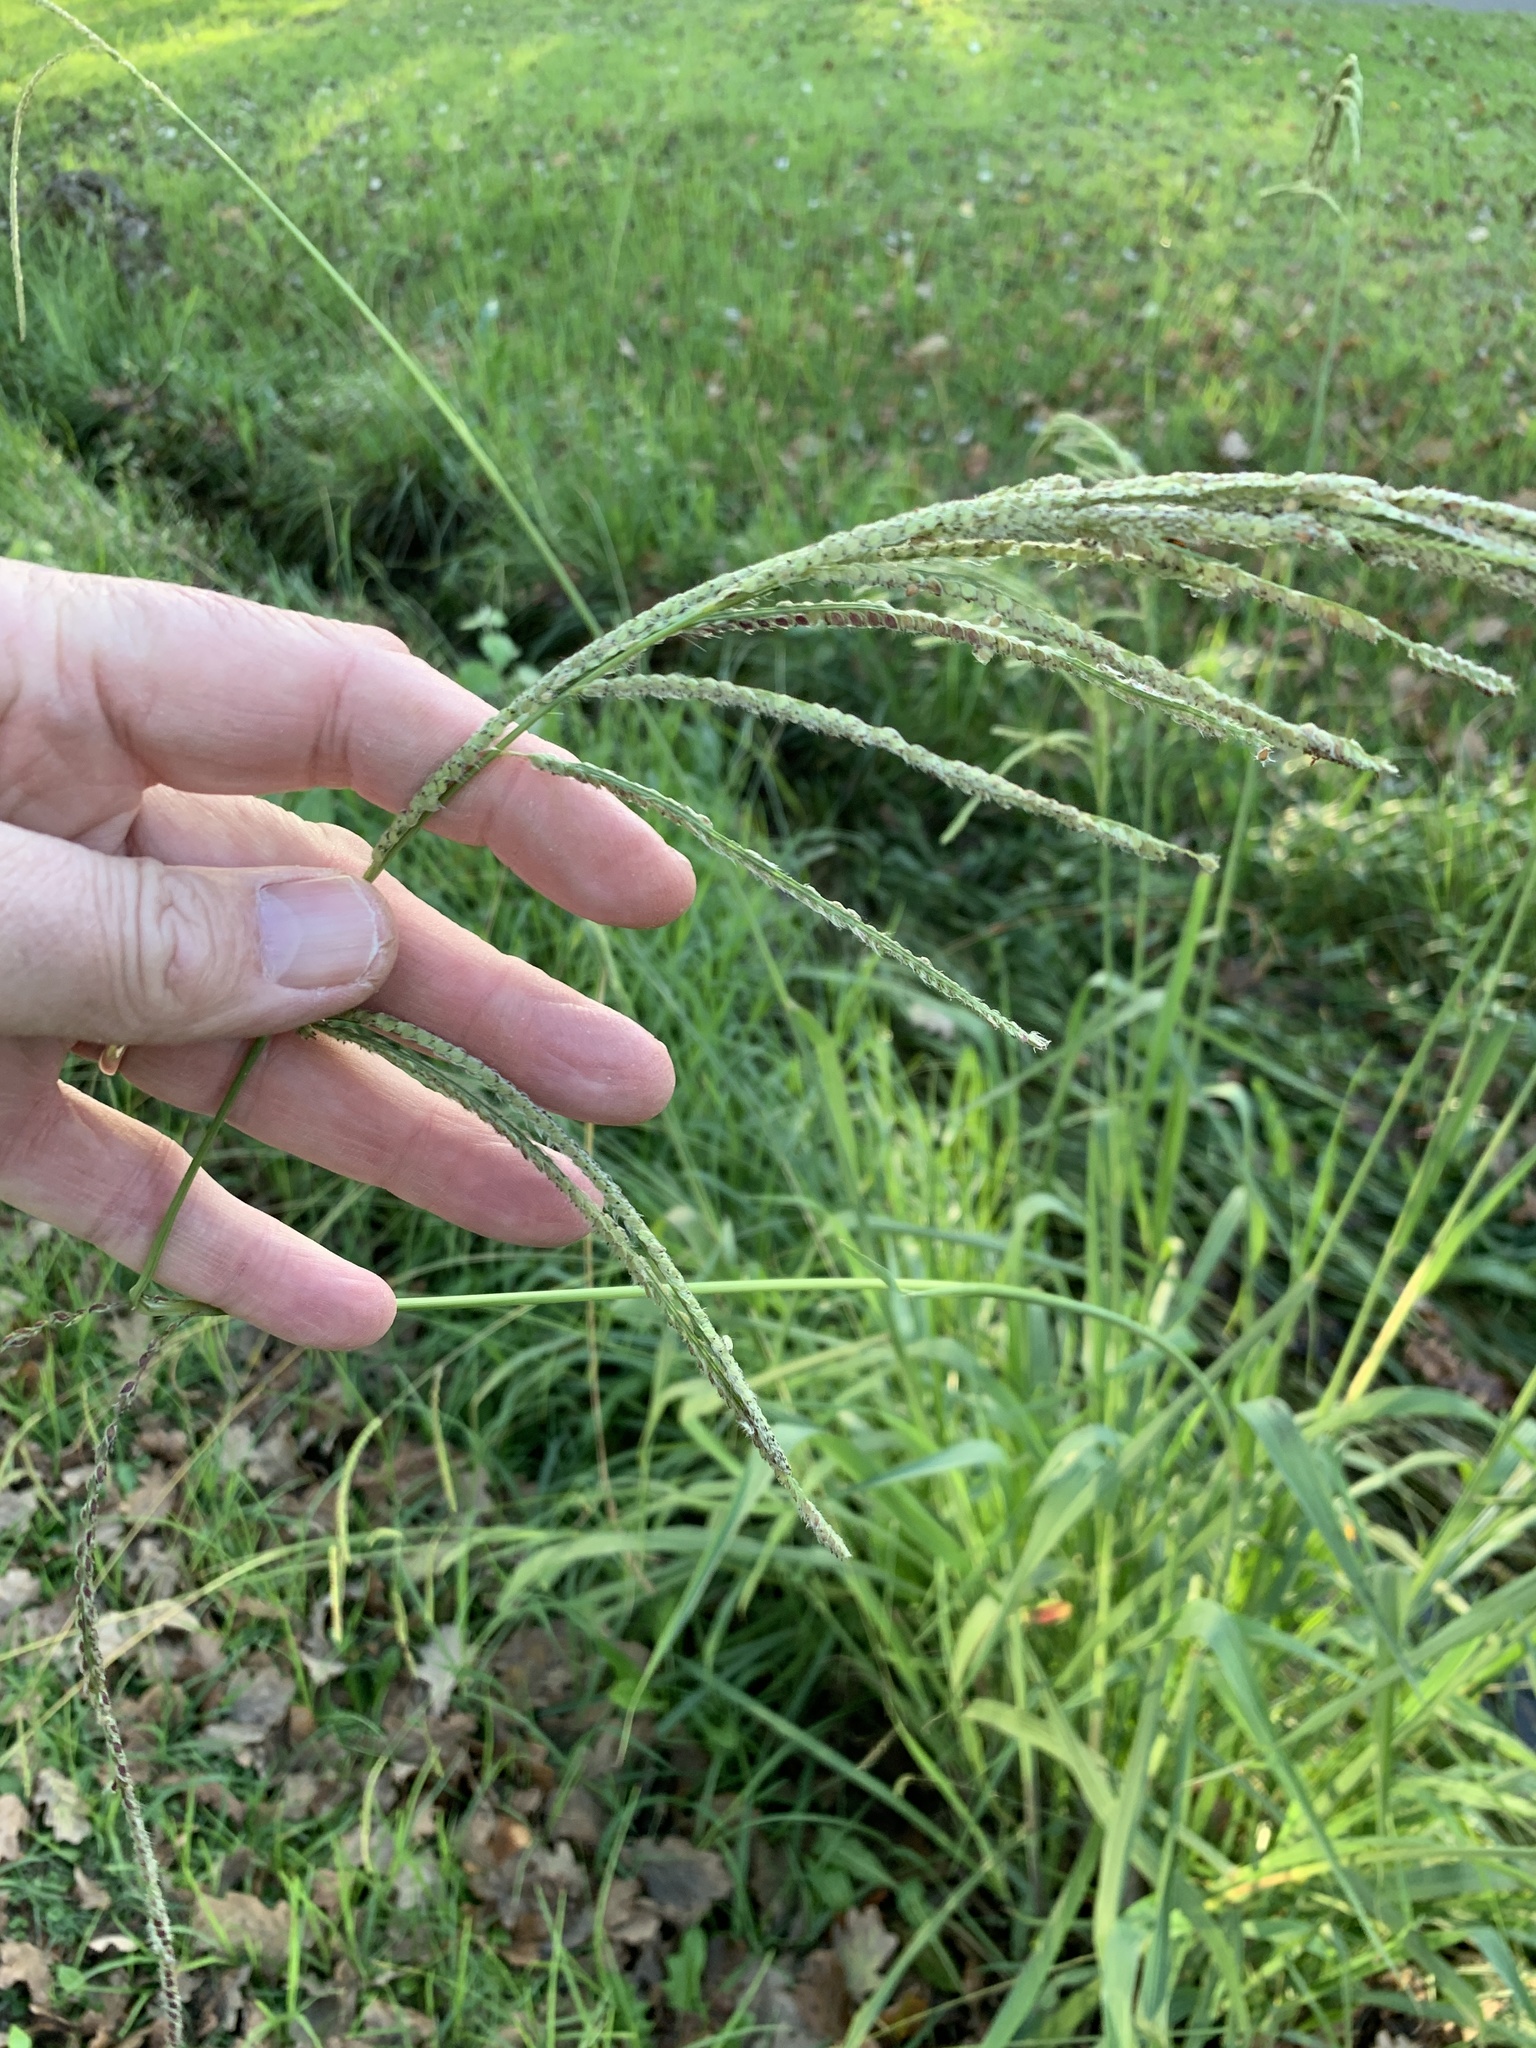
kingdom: Plantae
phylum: Tracheophyta
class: Liliopsida
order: Poales
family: Poaceae
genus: Paspalum
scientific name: Paspalum urvillei
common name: Vasey's grass
